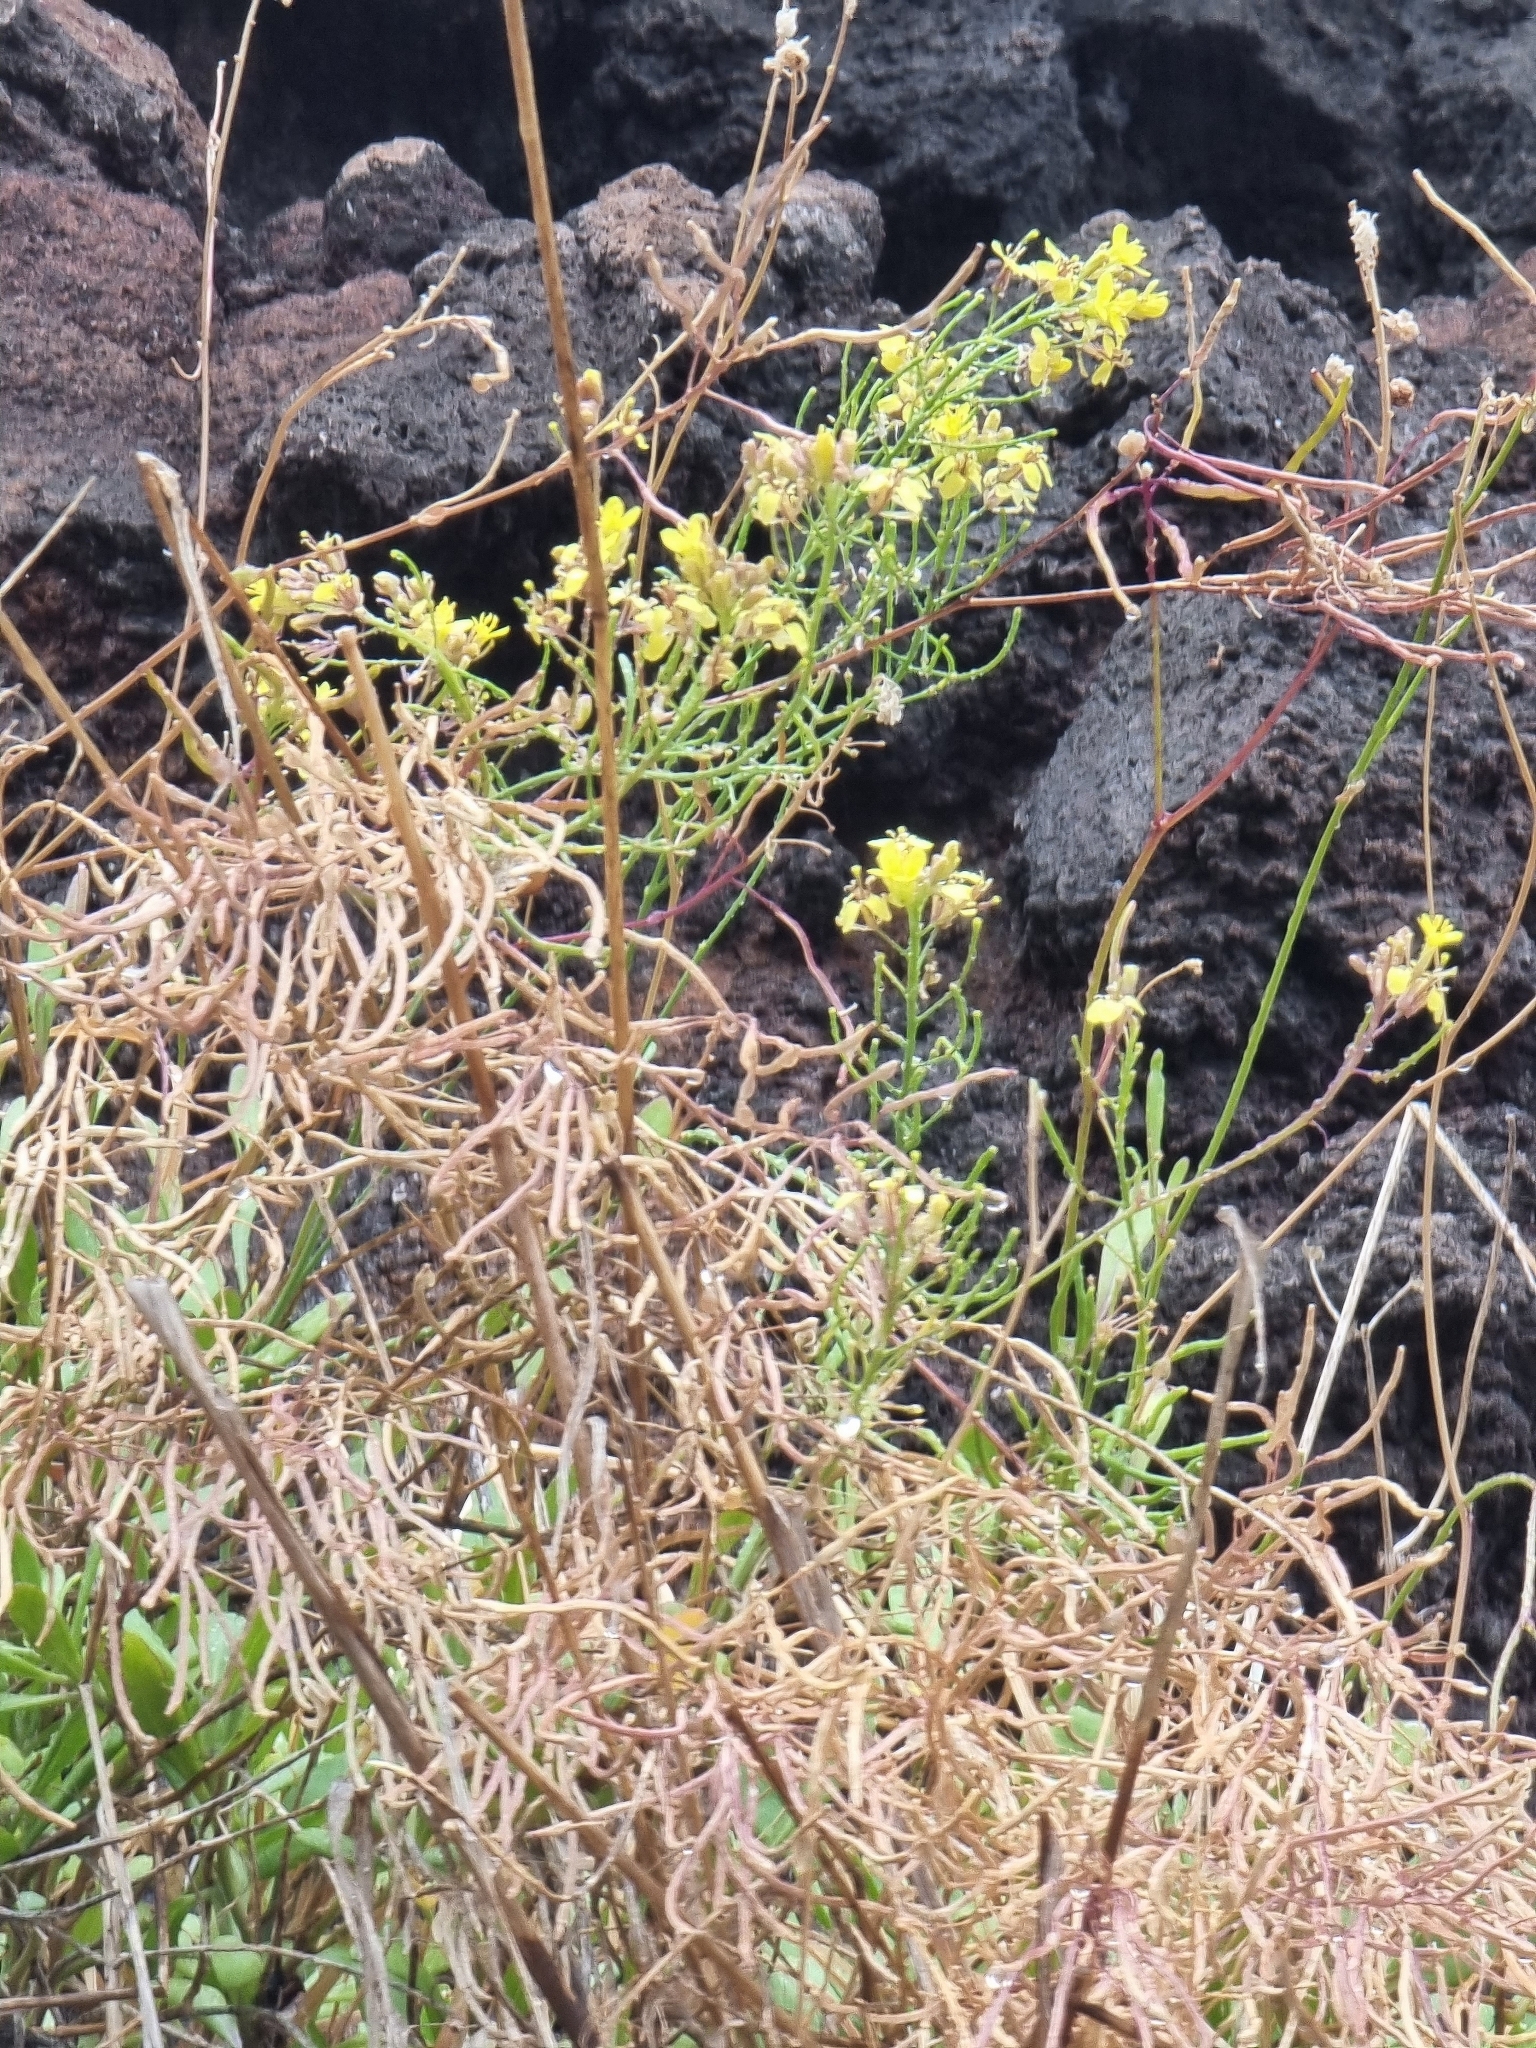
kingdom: Plantae
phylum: Tracheophyta
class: Magnoliopsida
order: Brassicales
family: Brassicaceae
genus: Sinapidendron
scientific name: Sinapidendron frutescens
